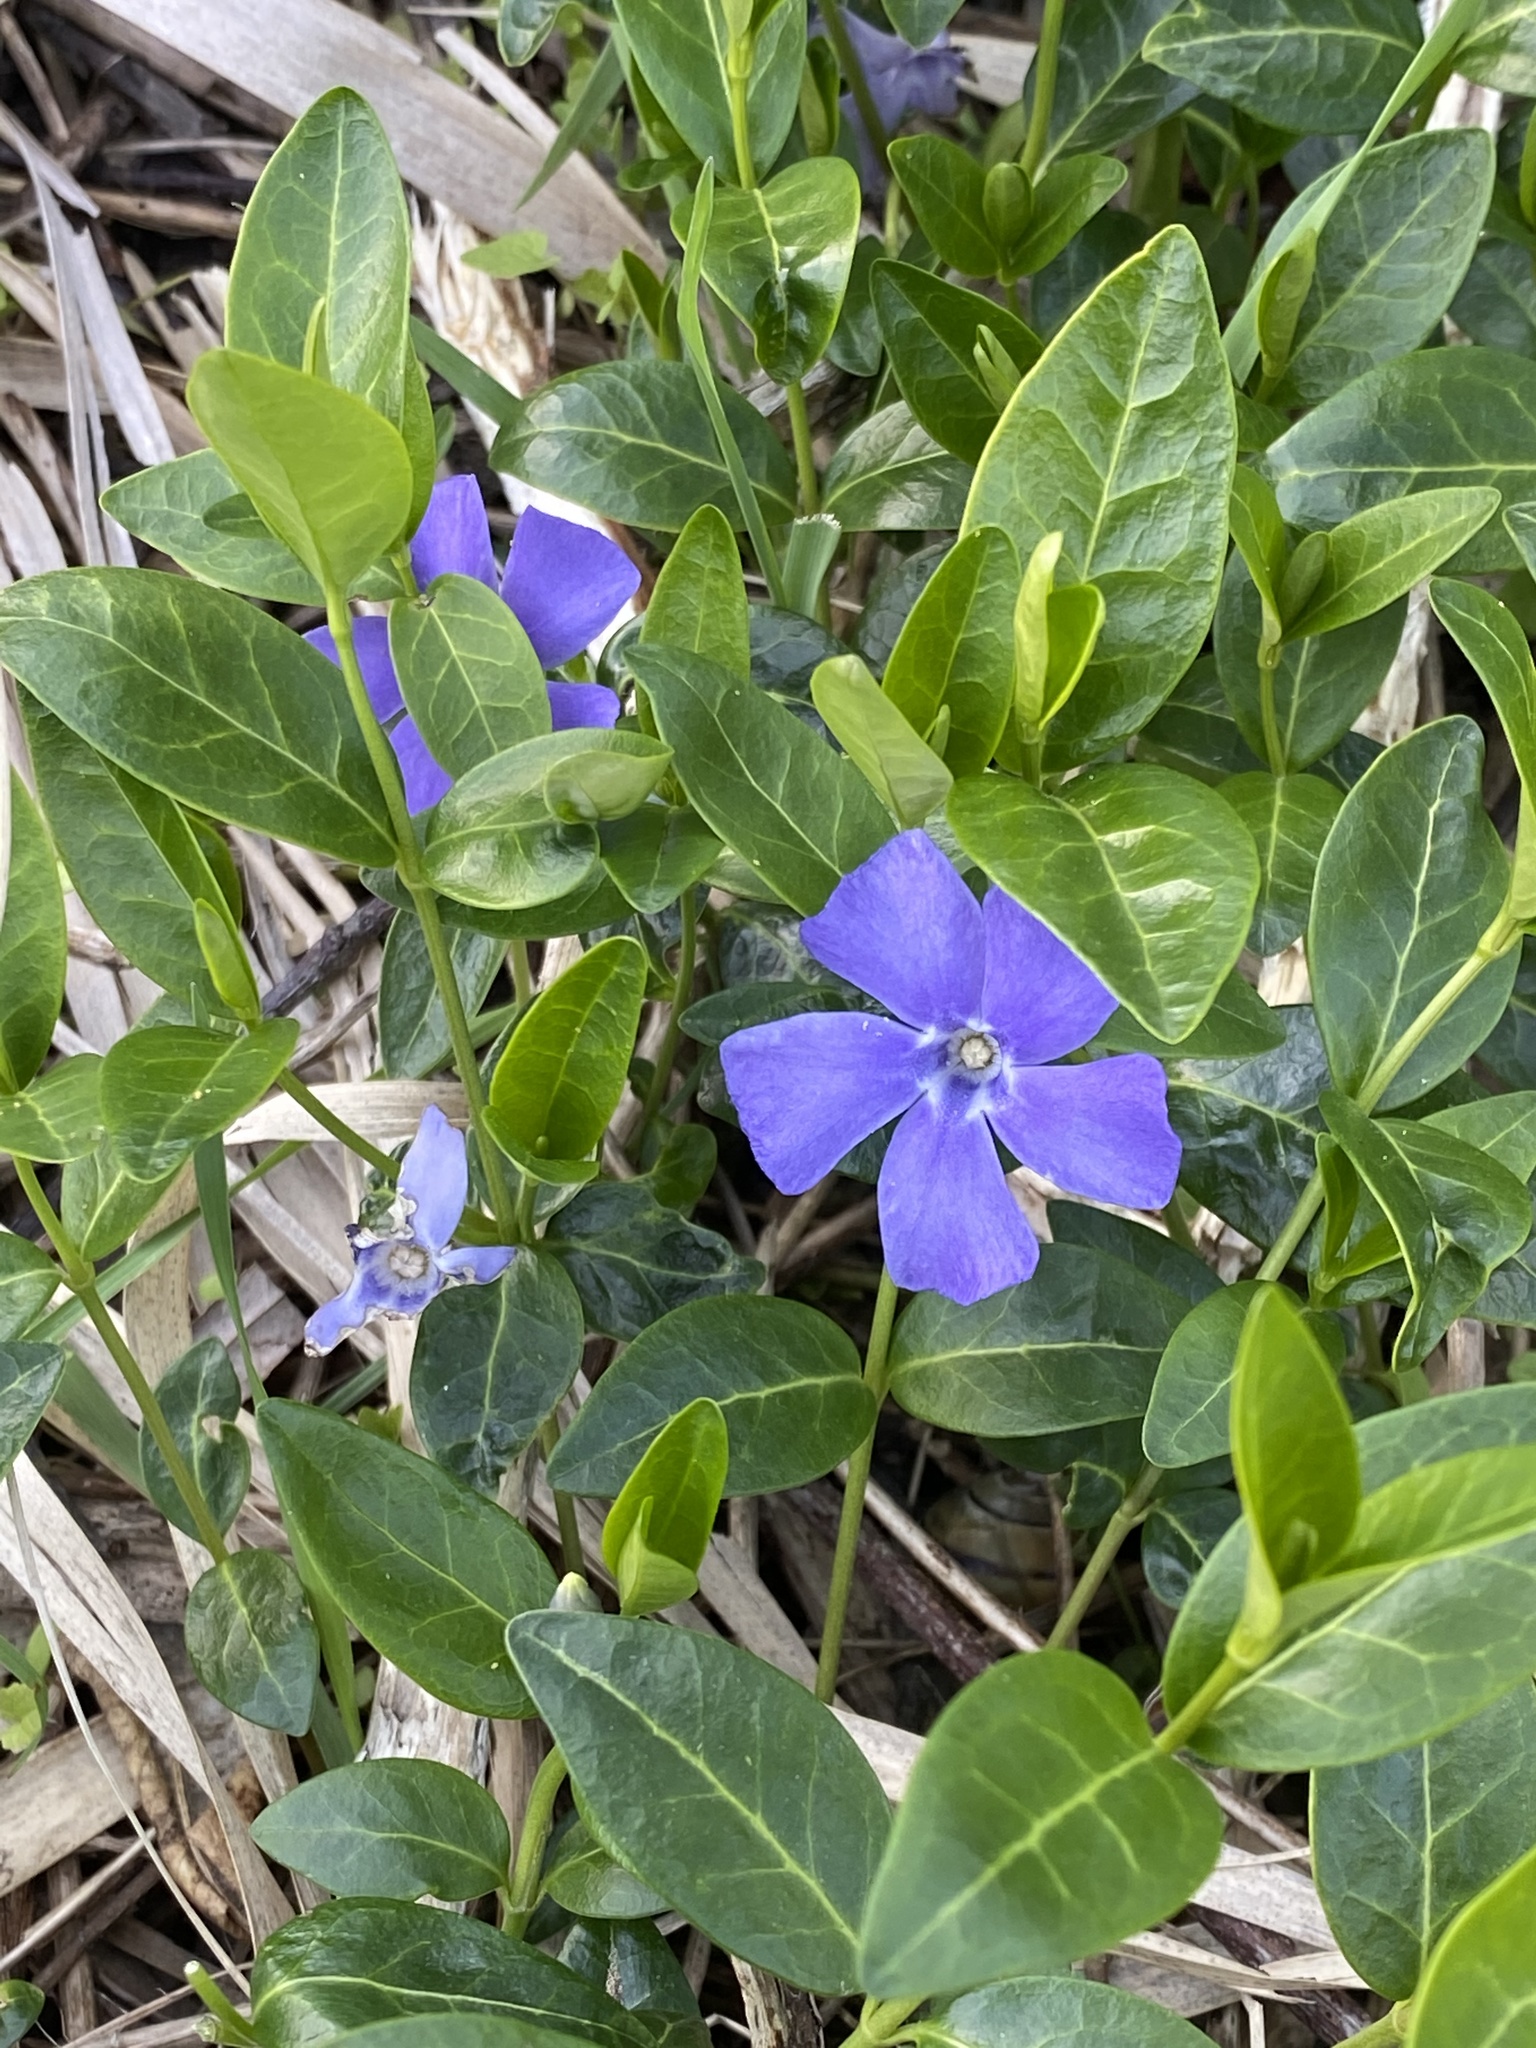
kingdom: Plantae
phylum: Tracheophyta
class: Magnoliopsida
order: Gentianales
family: Apocynaceae
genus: Vinca
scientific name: Vinca minor
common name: Lesser periwinkle
